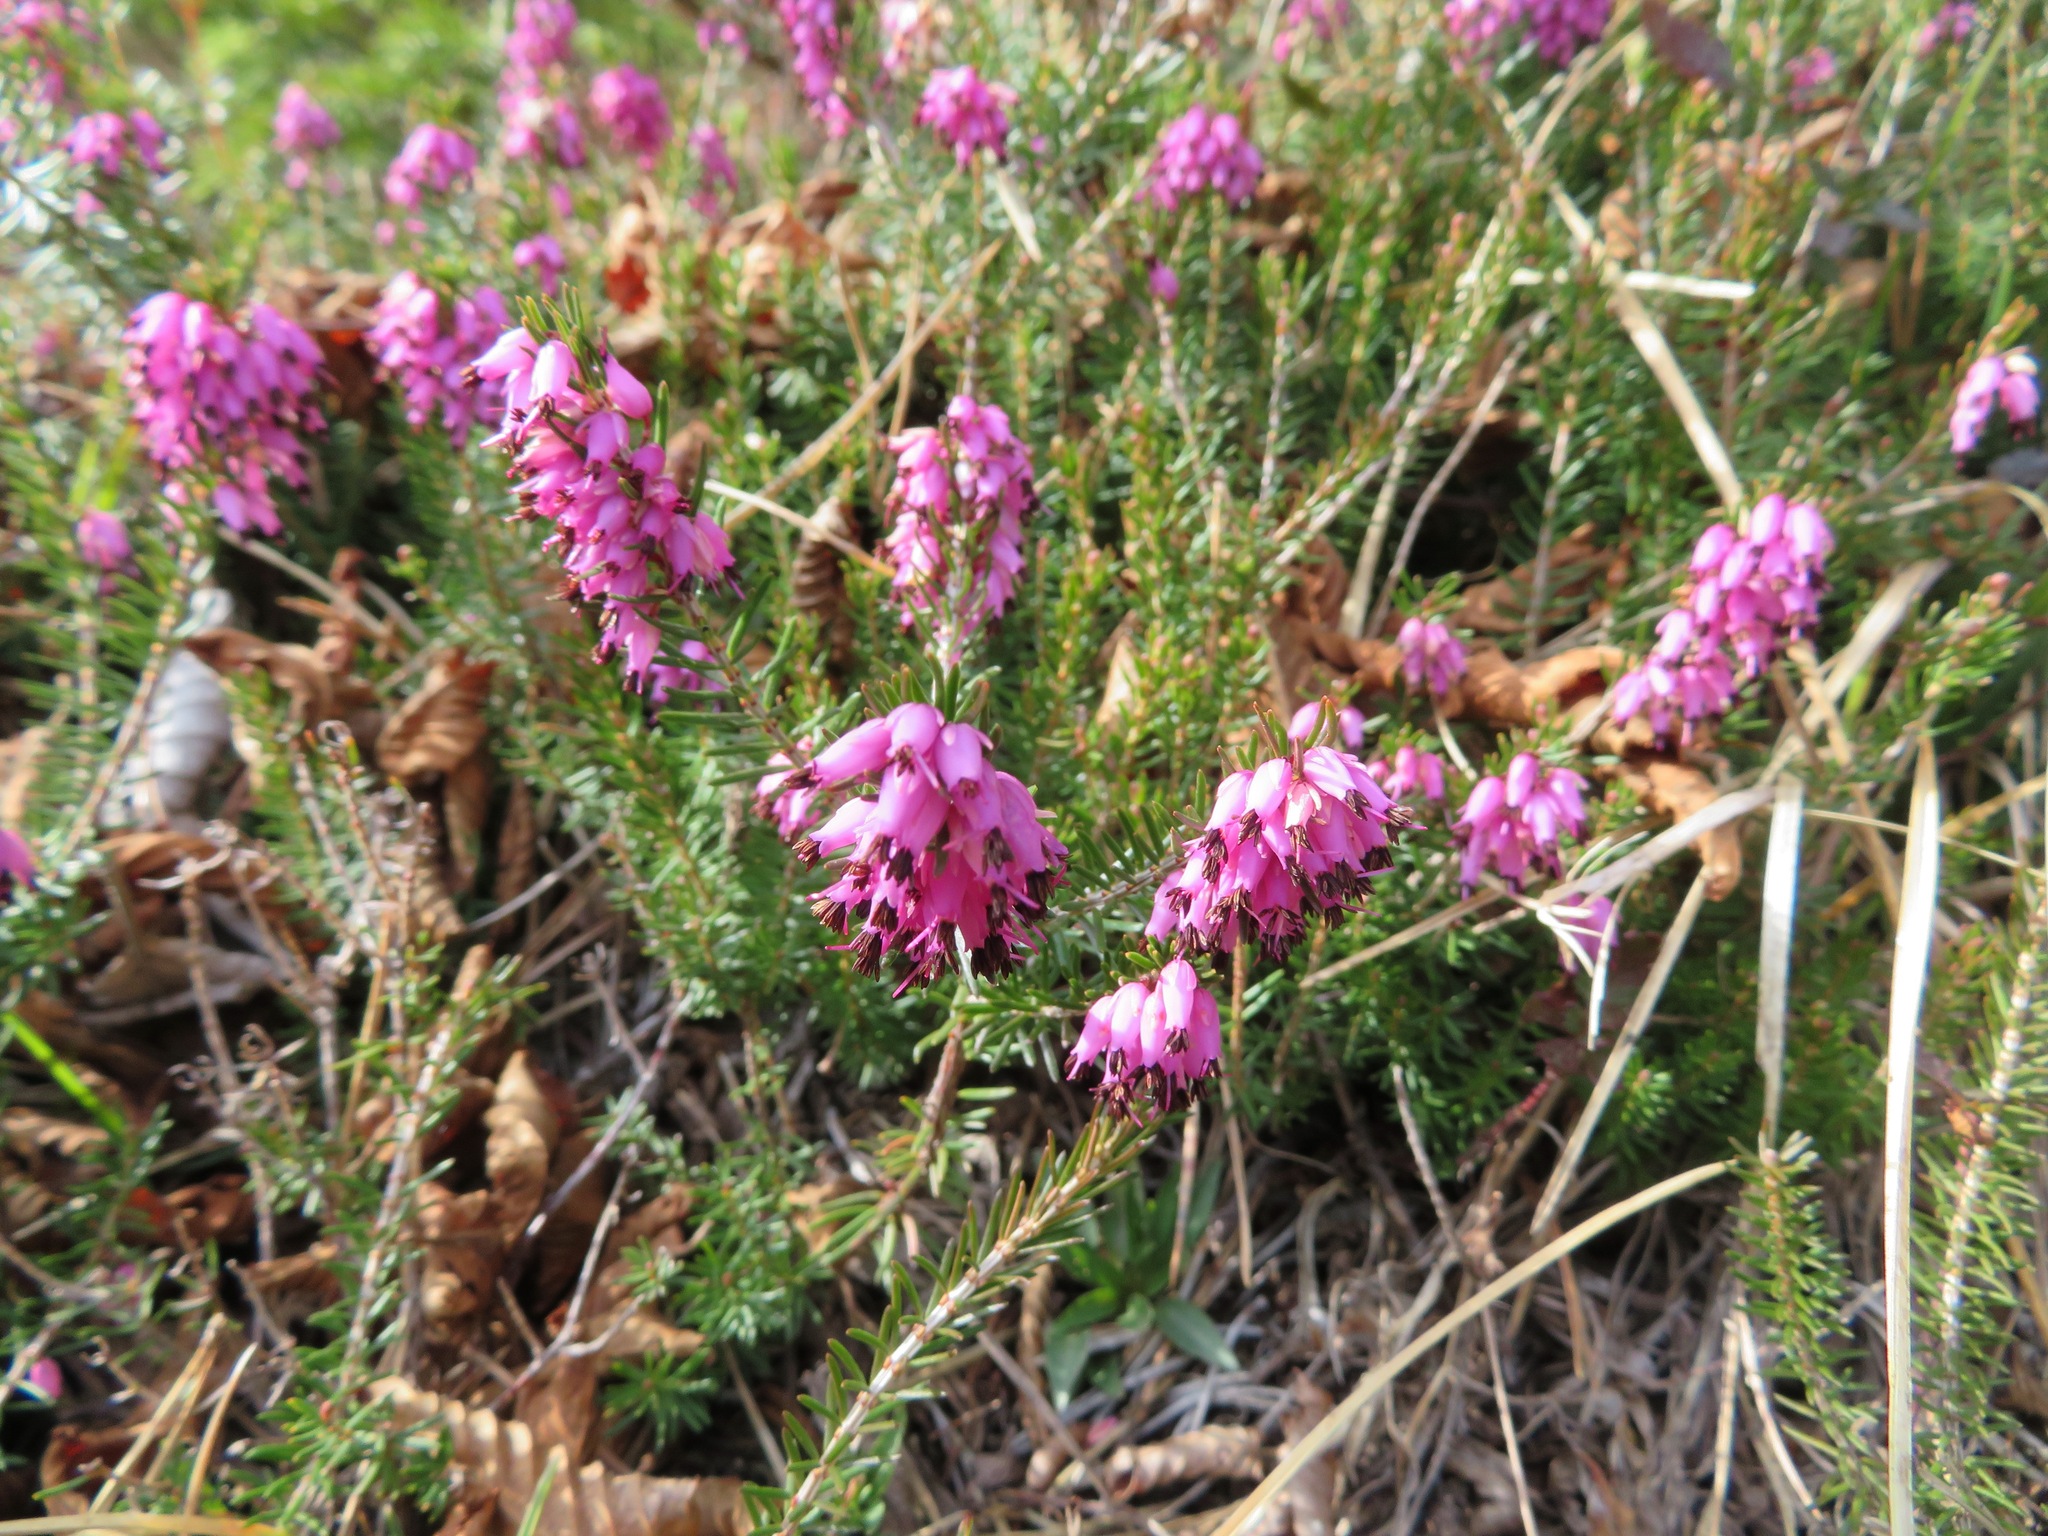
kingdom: Plantae
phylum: Tracheophyta
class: Magnoliopsida
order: Ericales
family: Ericaceae
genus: Erica
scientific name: Erica carnea
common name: Winter heath
